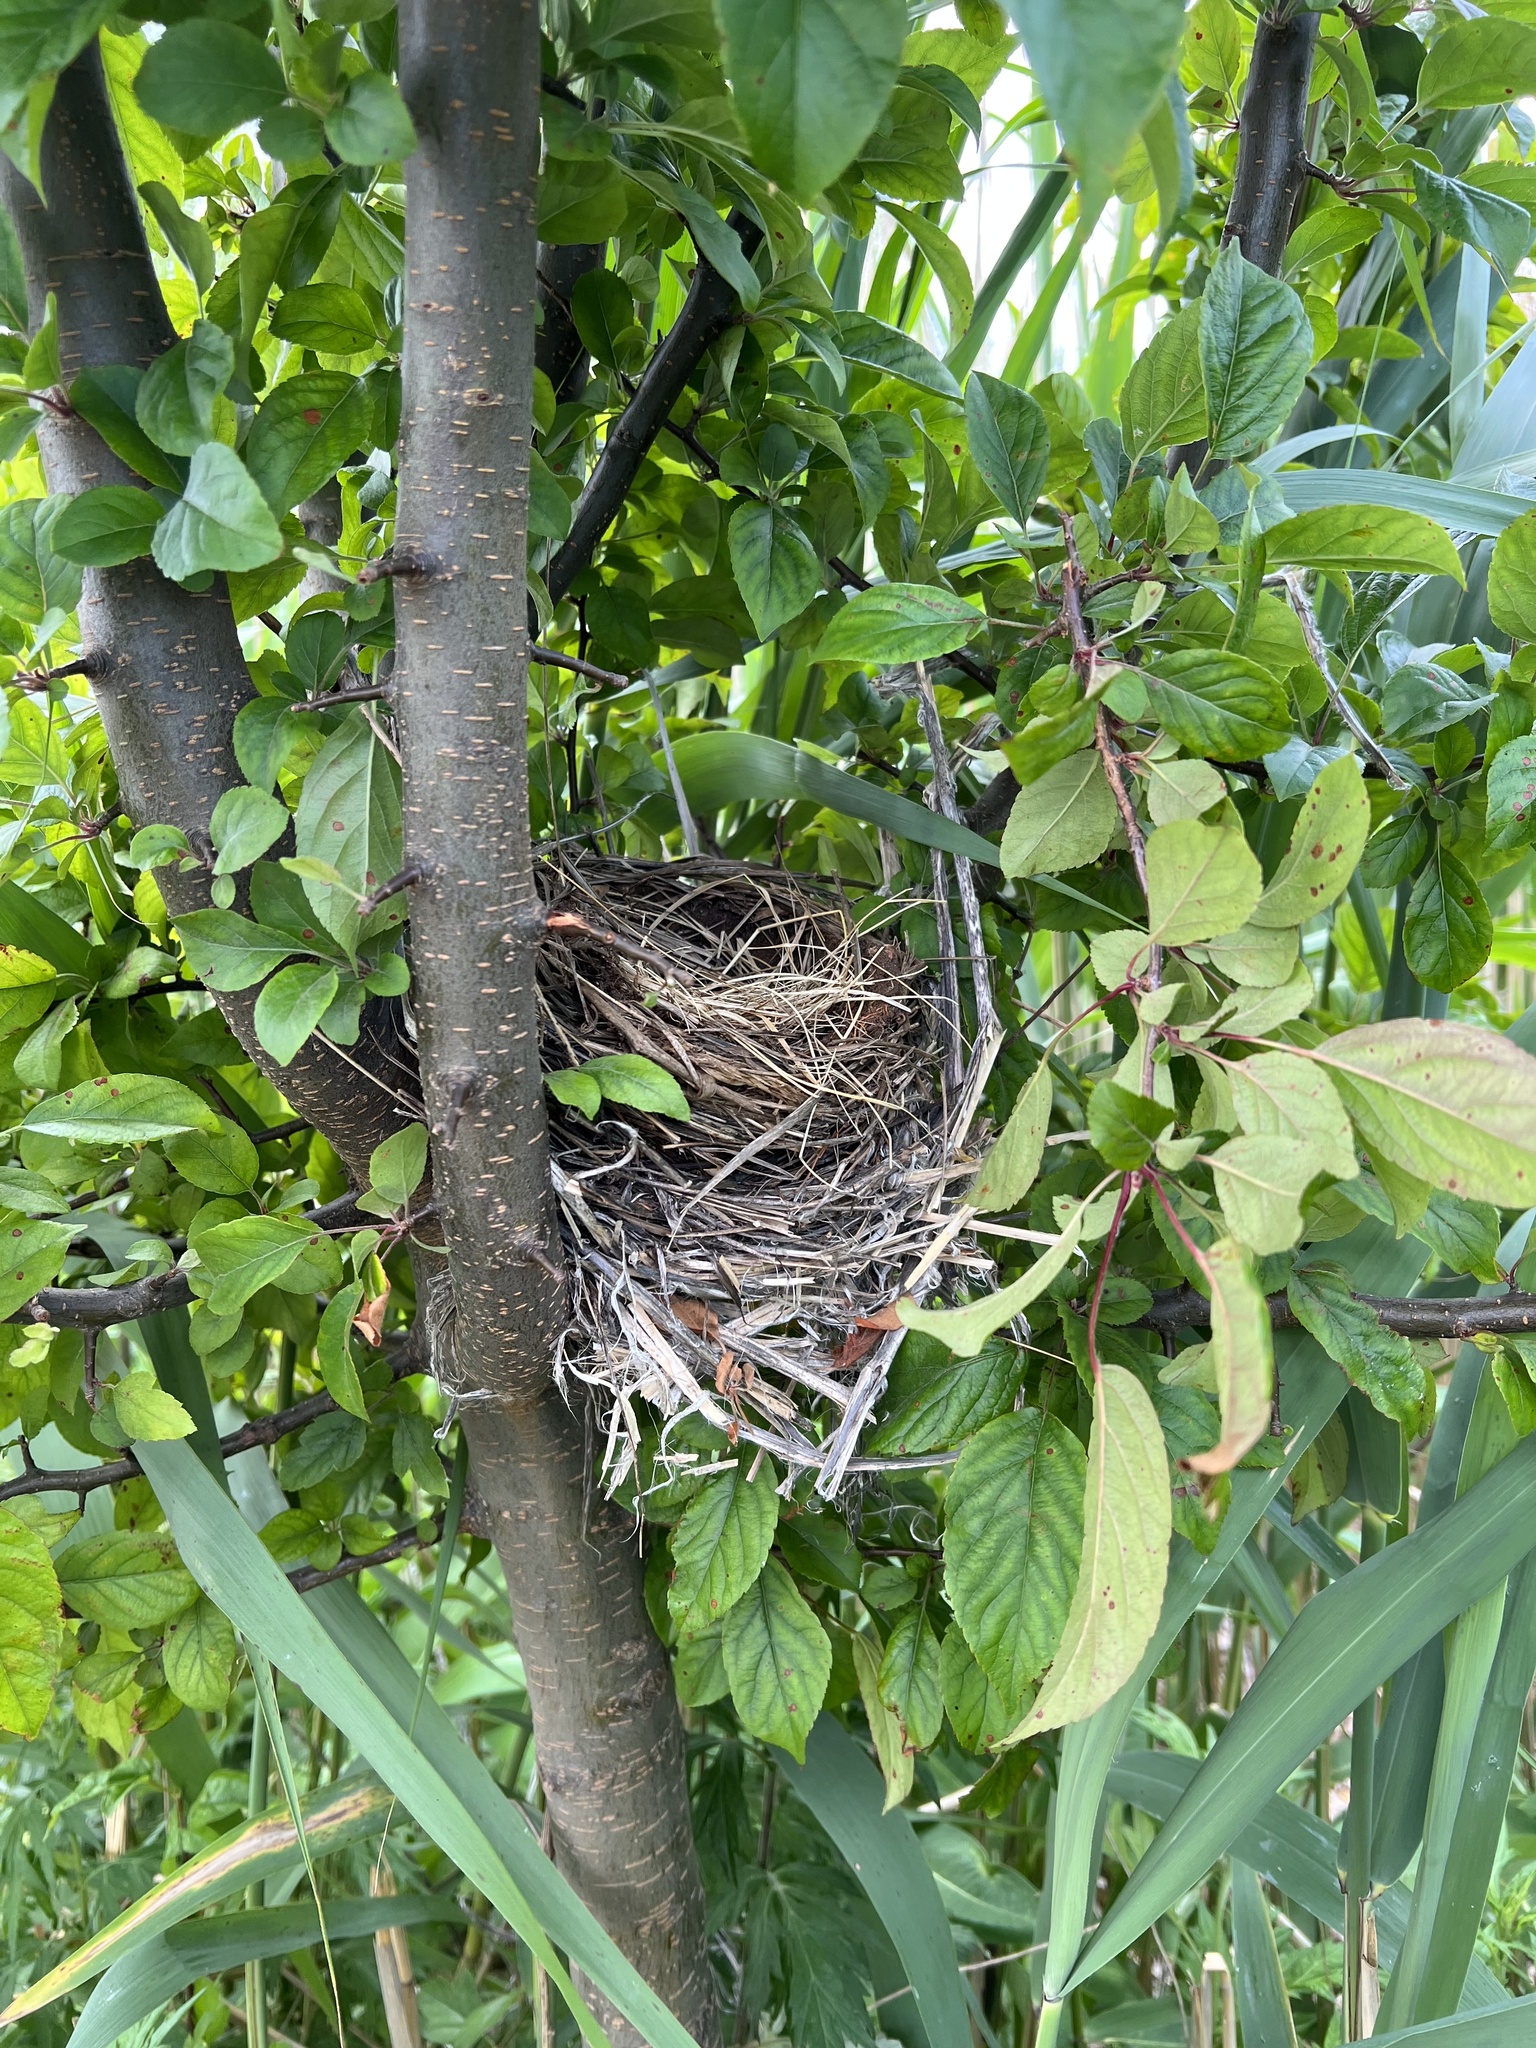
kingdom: Animalia
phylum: Chordata
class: Aves
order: Passeriformes
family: Turdidae
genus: Turdus
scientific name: Turdus migratorius
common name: American robin
